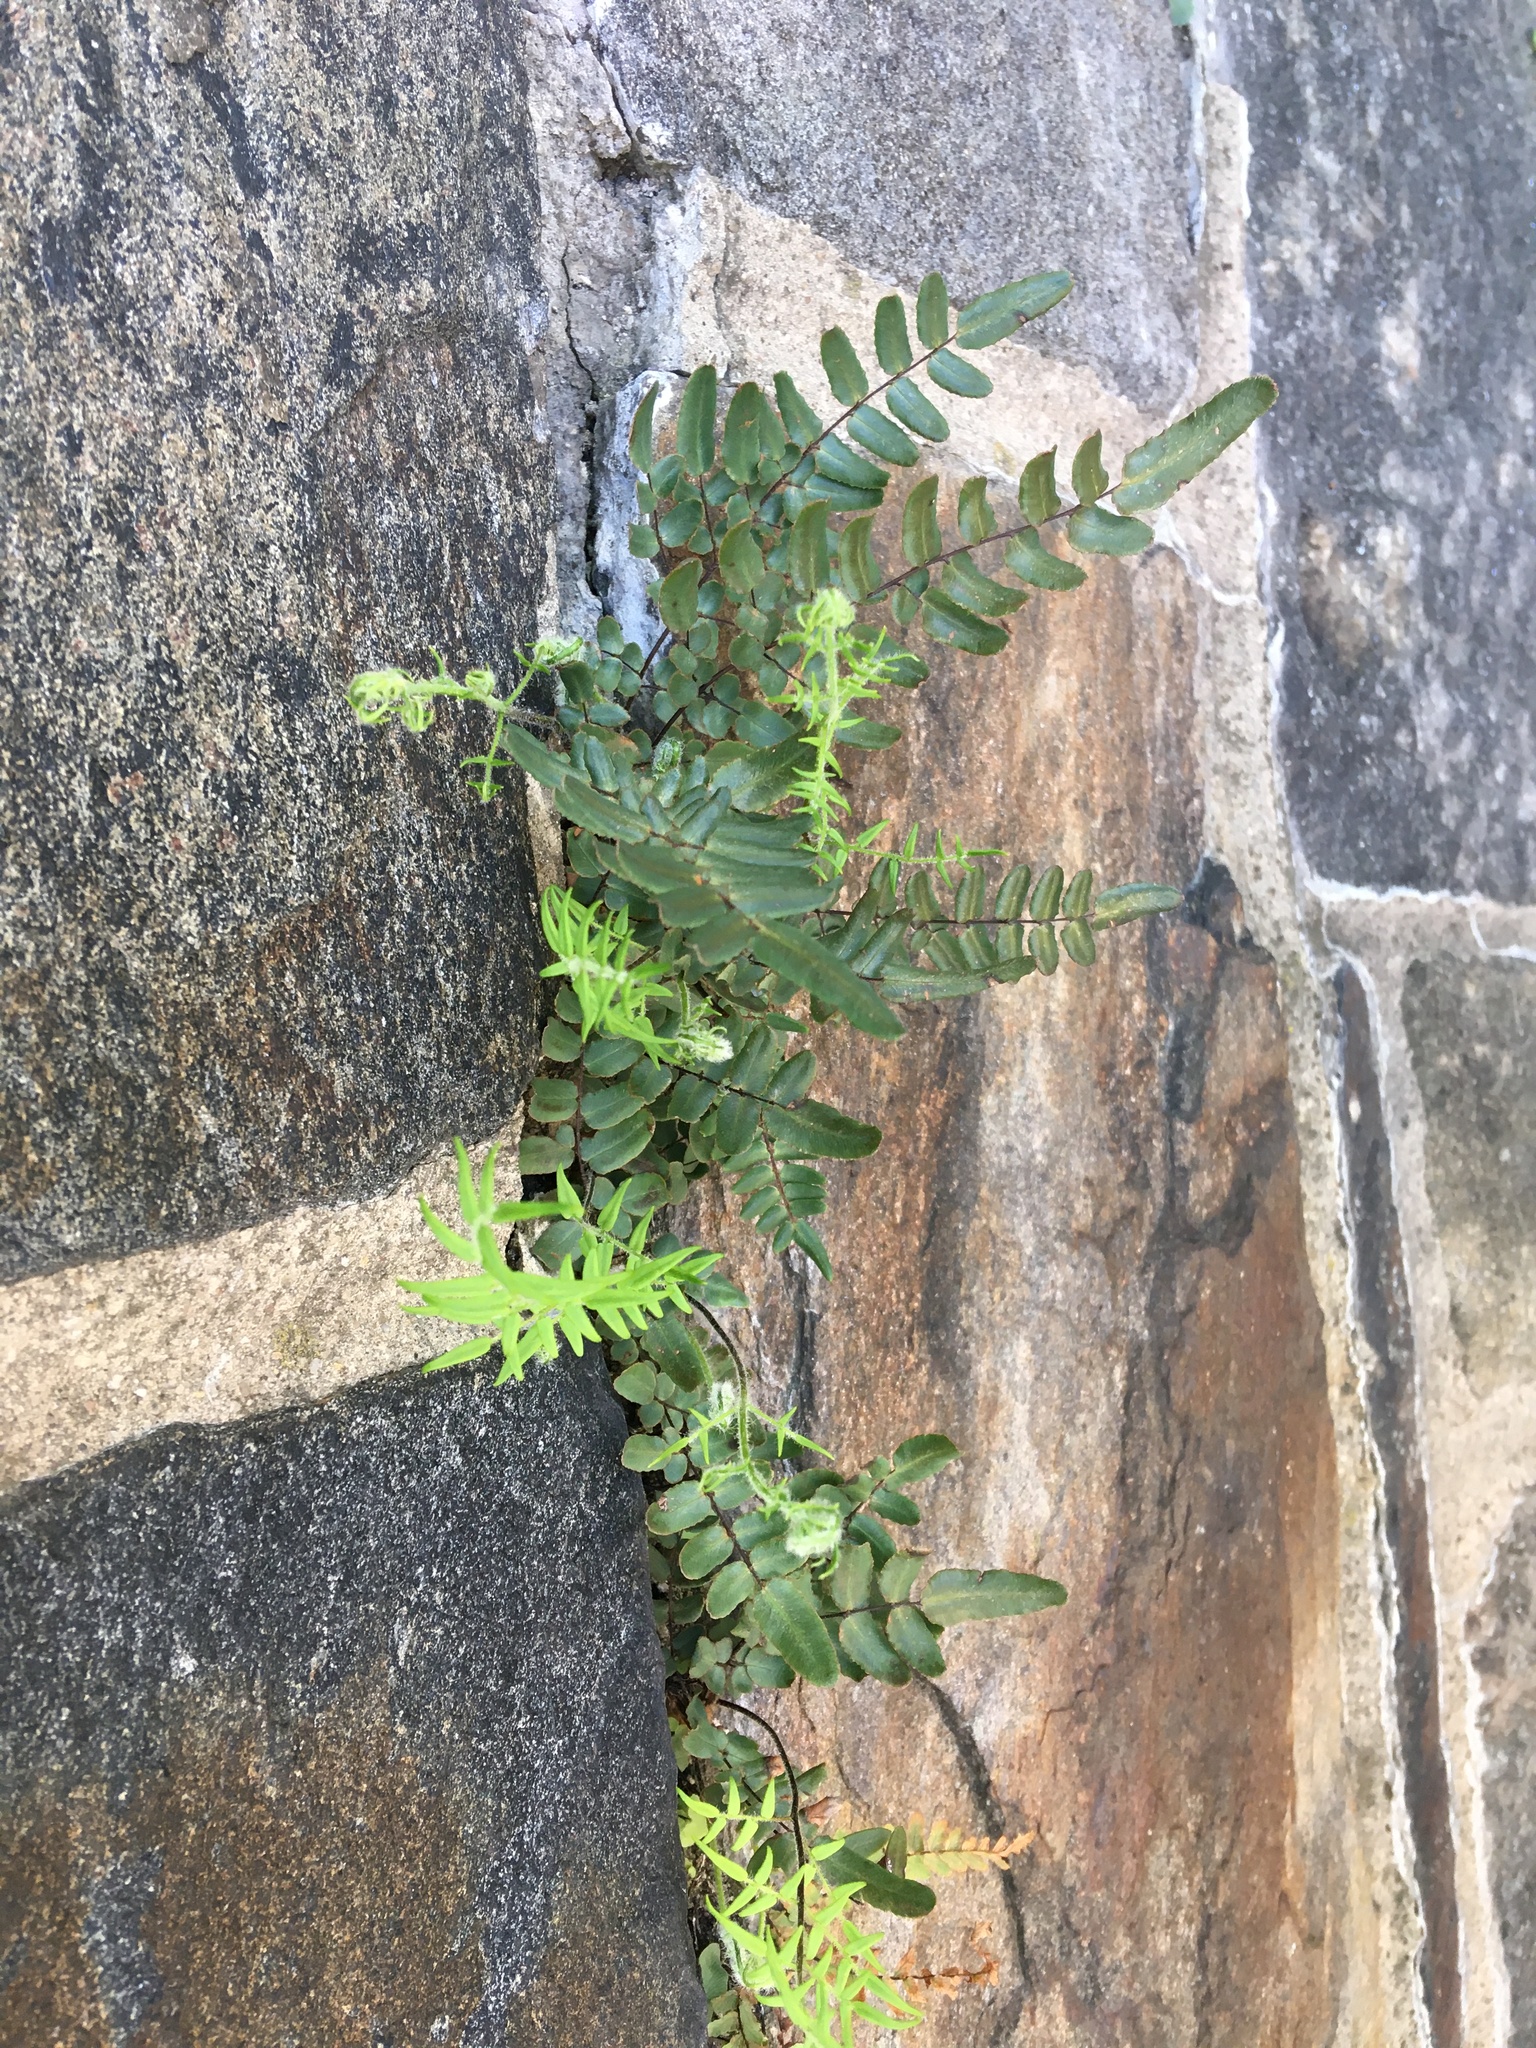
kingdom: Plantae
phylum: Tracheophyta
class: Polypodiopsida
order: Polypodiales
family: Pteridaceae
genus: Pellaea
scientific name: Pellaea atropurpurea
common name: Hairy cliffbrake
